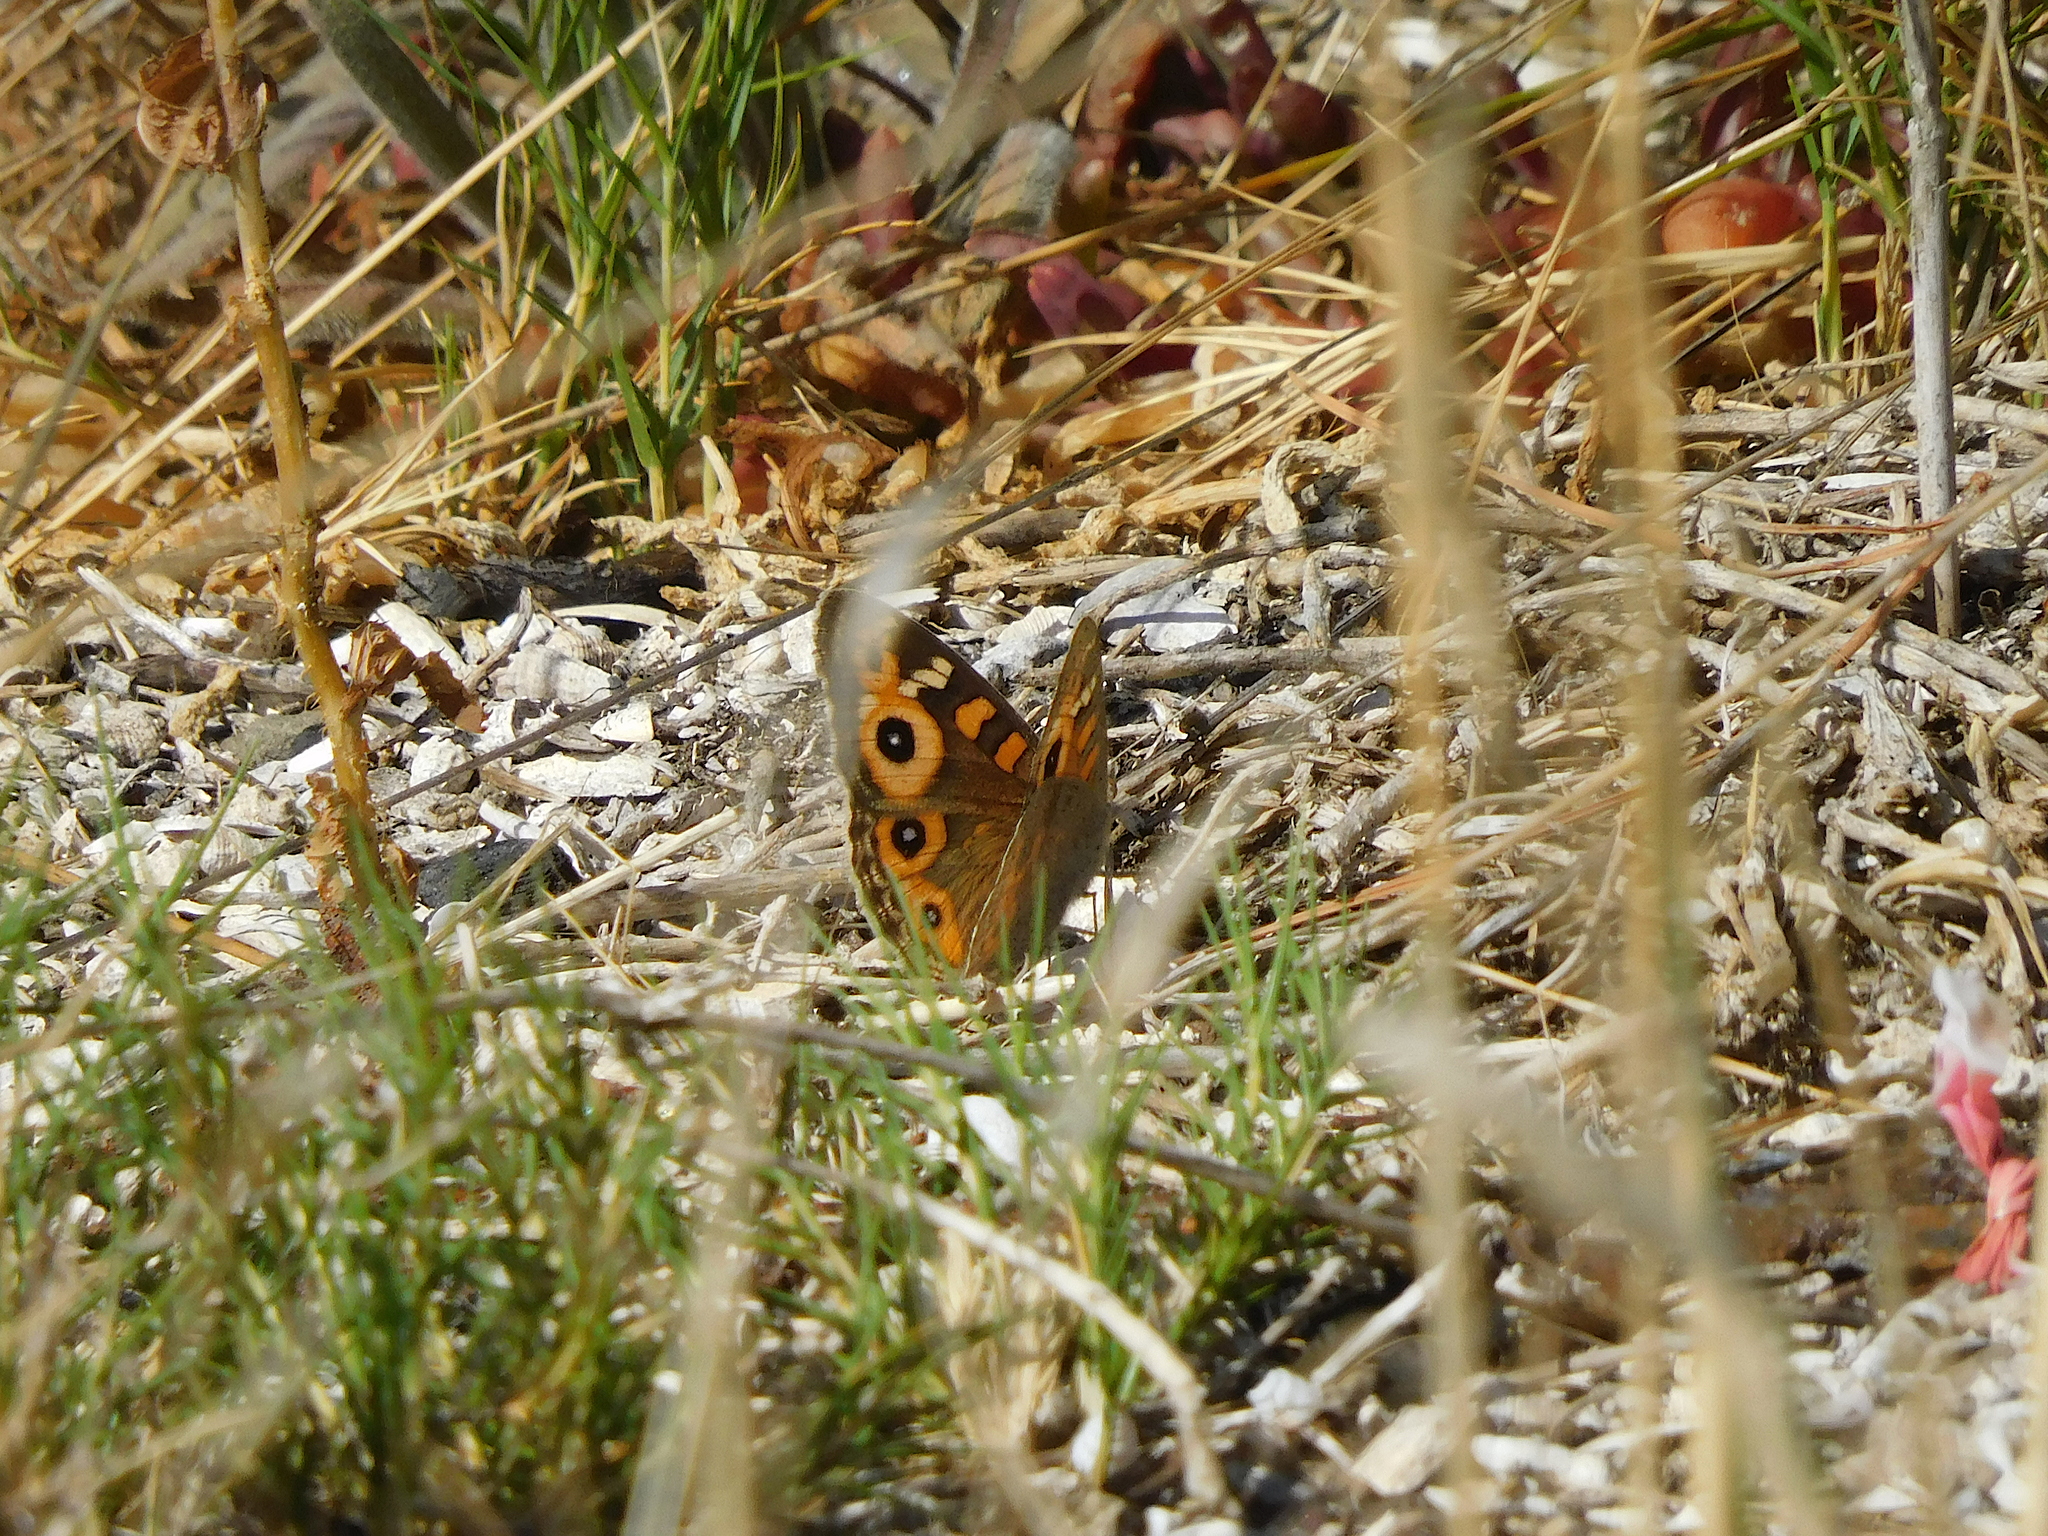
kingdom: Animalia
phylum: Arthropoda
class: Insecta
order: Lepidoptera
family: Nymphalidae
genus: Junonia
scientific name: Junonia villida
